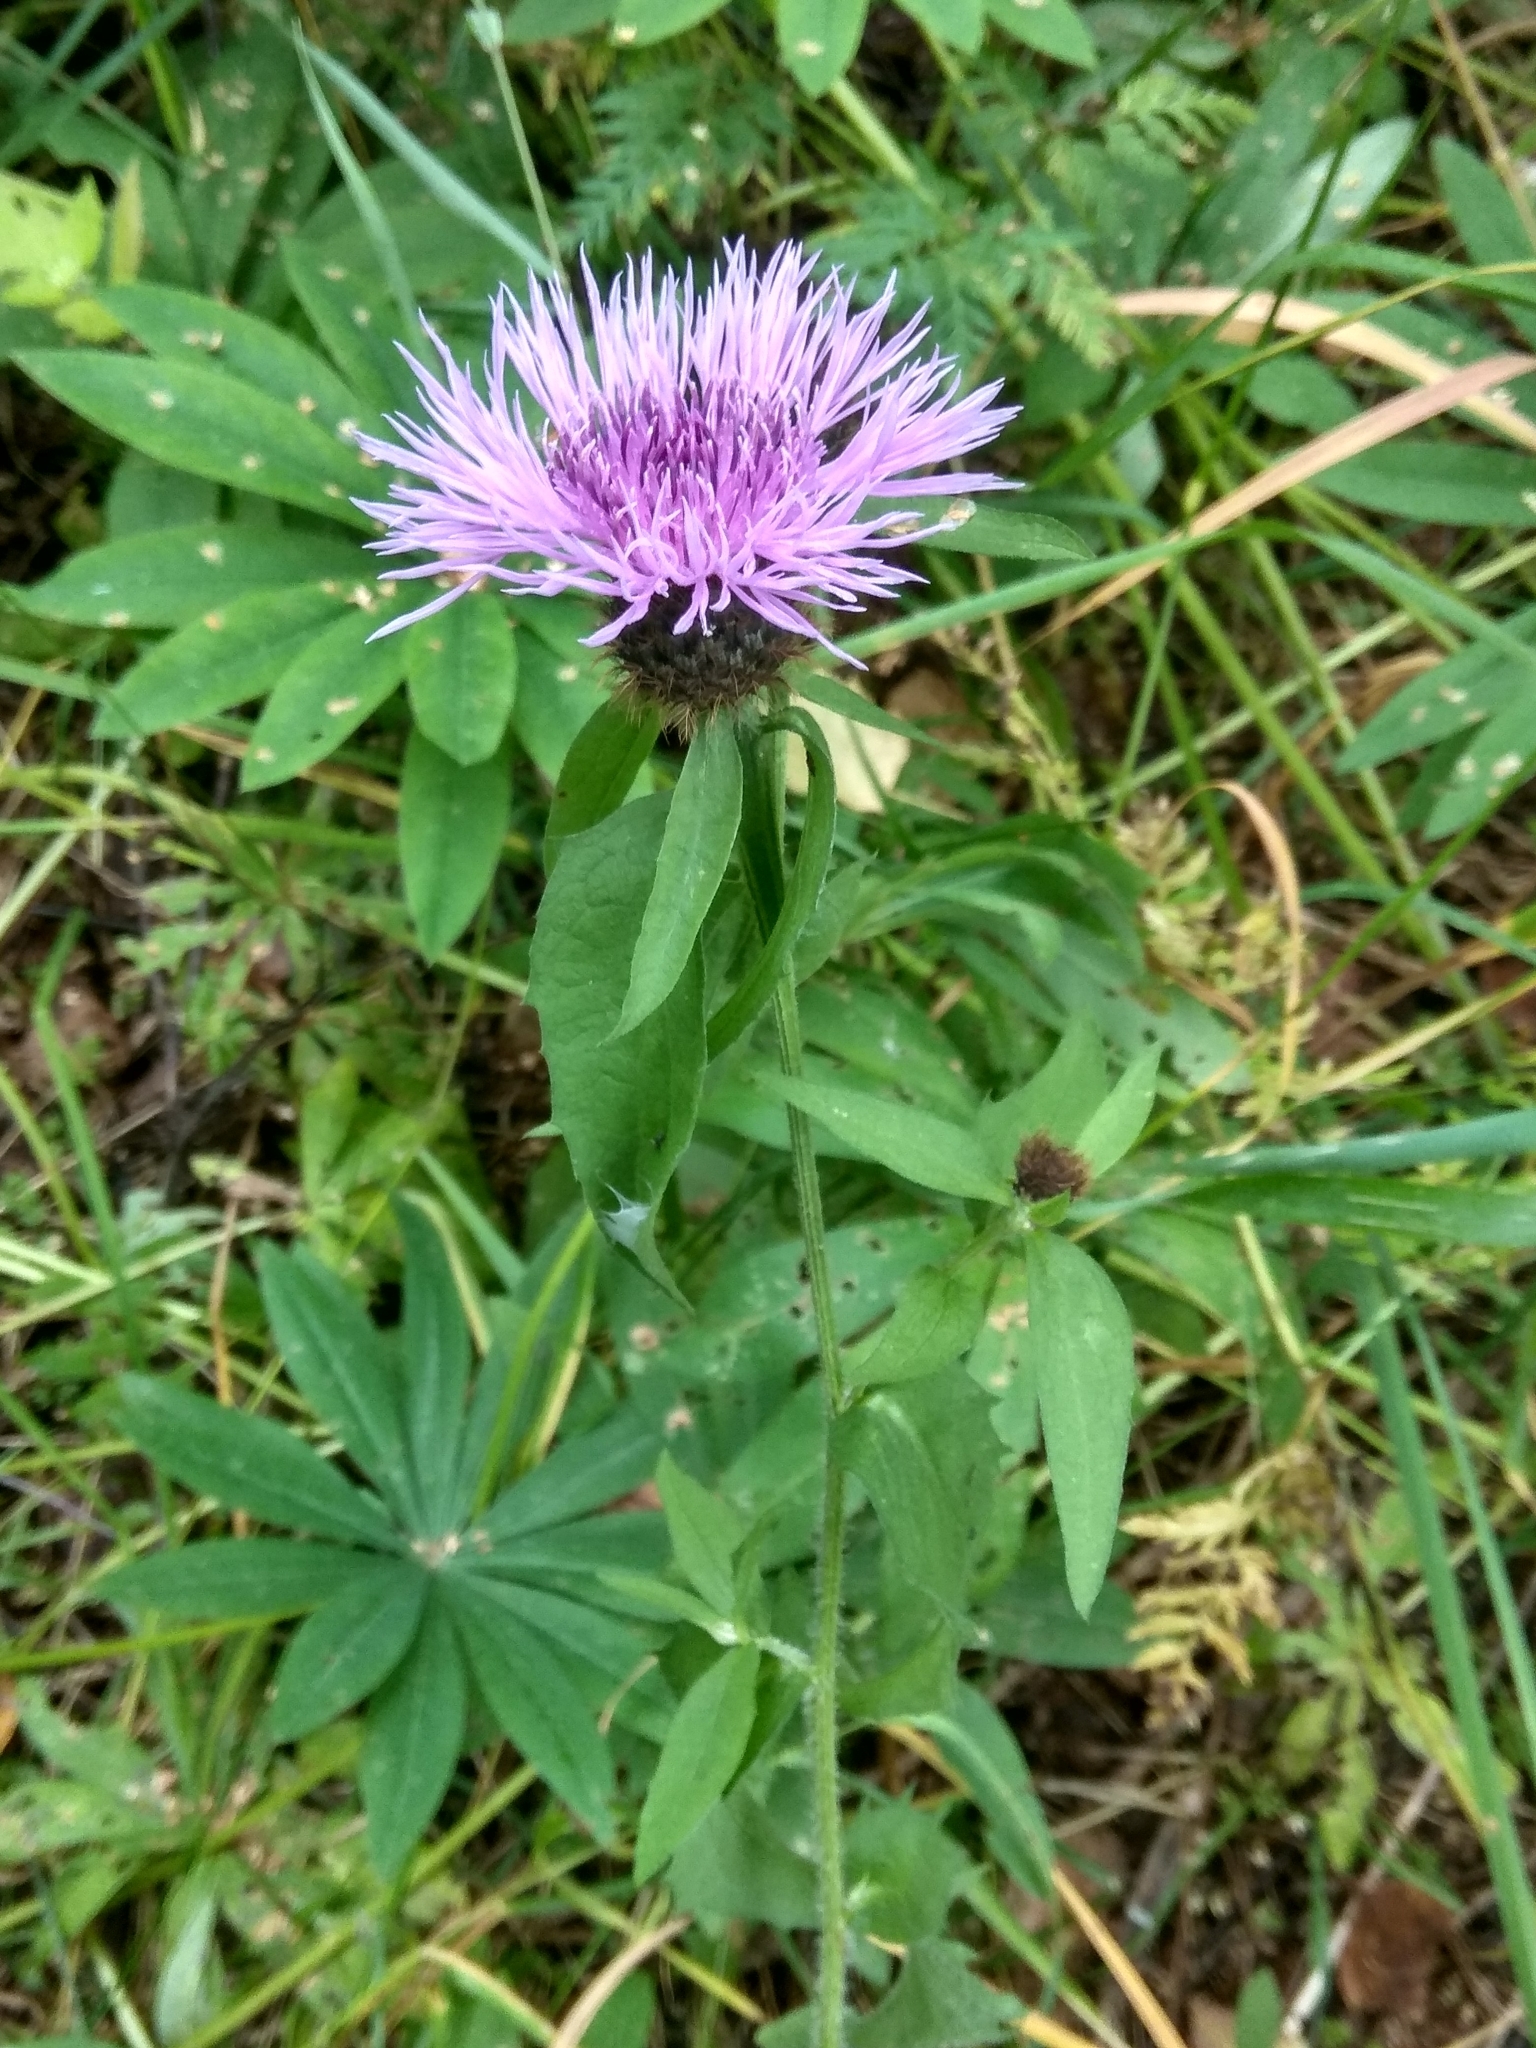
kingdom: Plantae
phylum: Tracheophyta
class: Magnoliopsida
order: Asterales
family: Asteraceae
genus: Centaurea
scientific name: Centaurea phrygia
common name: Wig knapweed
